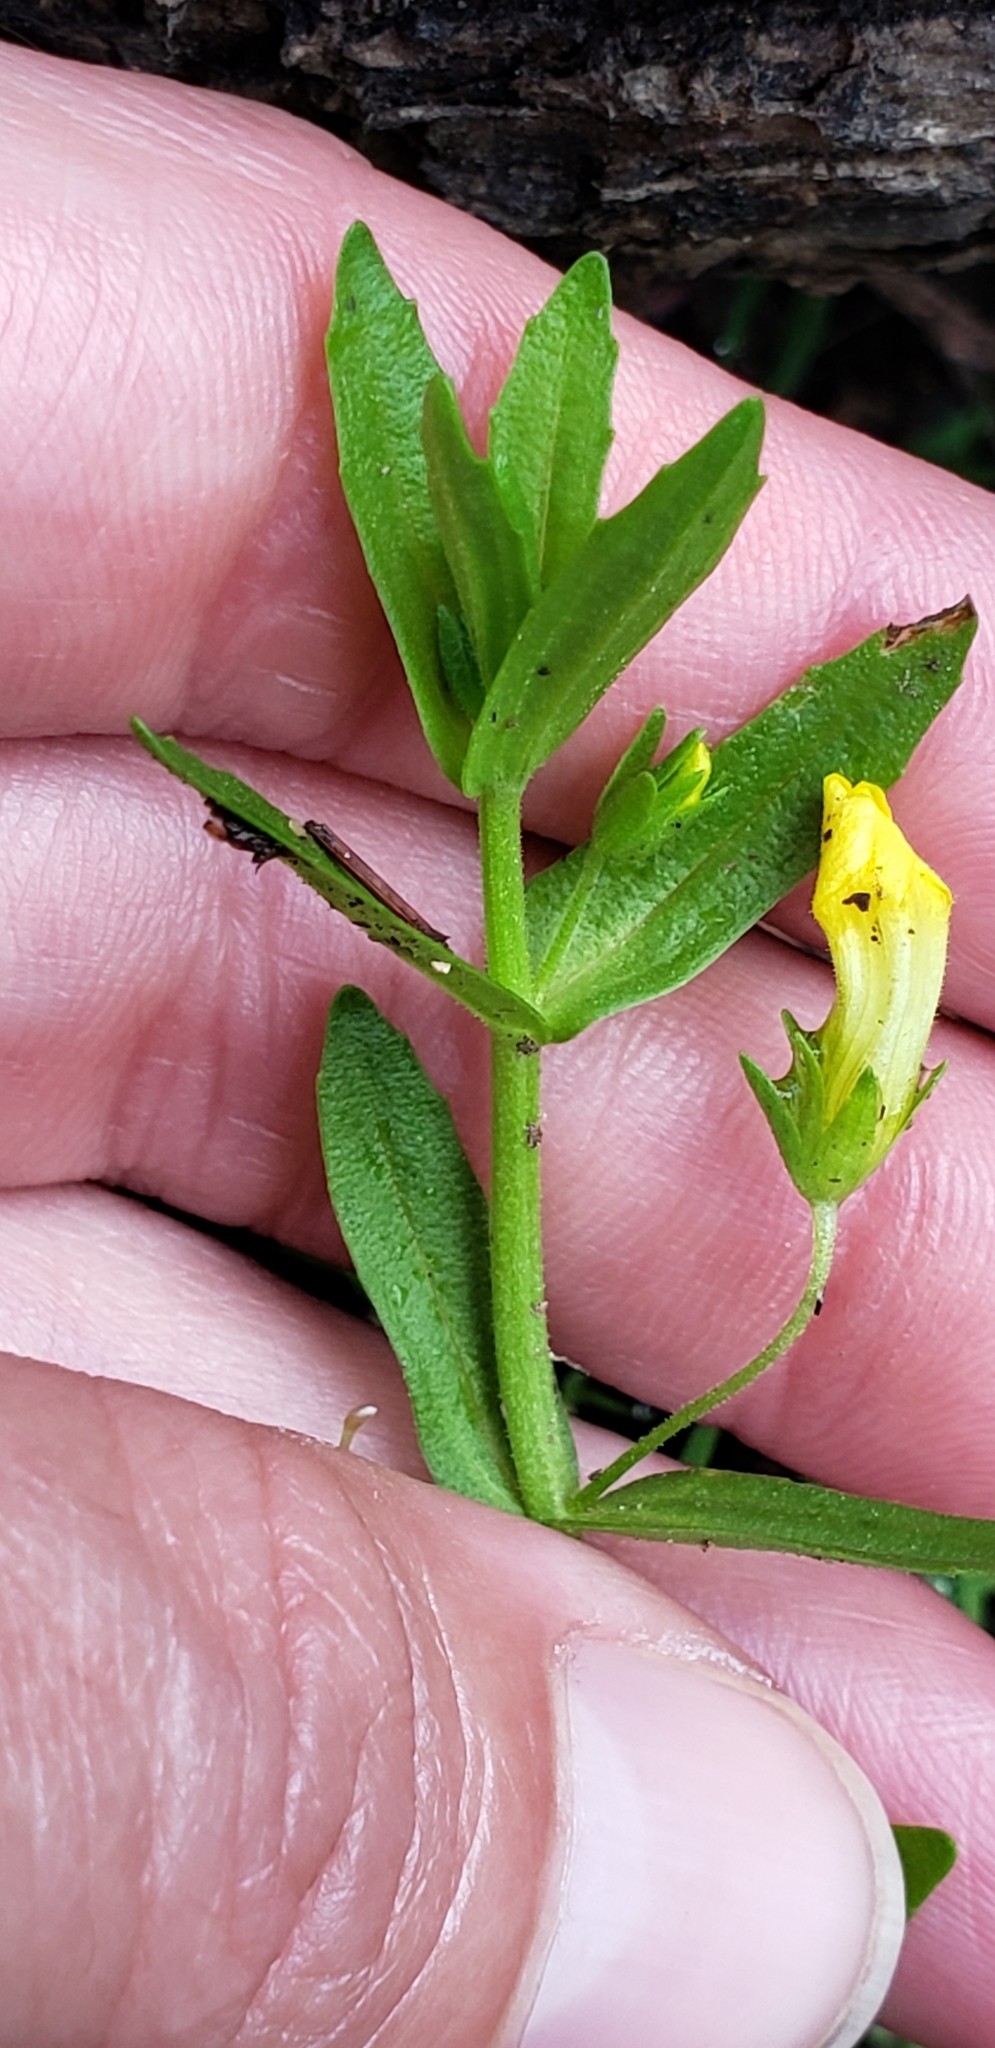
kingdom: Plantae
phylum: Tracheophyta
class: Magnoliopsida
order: Lamiales
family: Plantaginaceae
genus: Gratiola
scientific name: Gratiola lutea
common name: Golden hedge-hyssop
